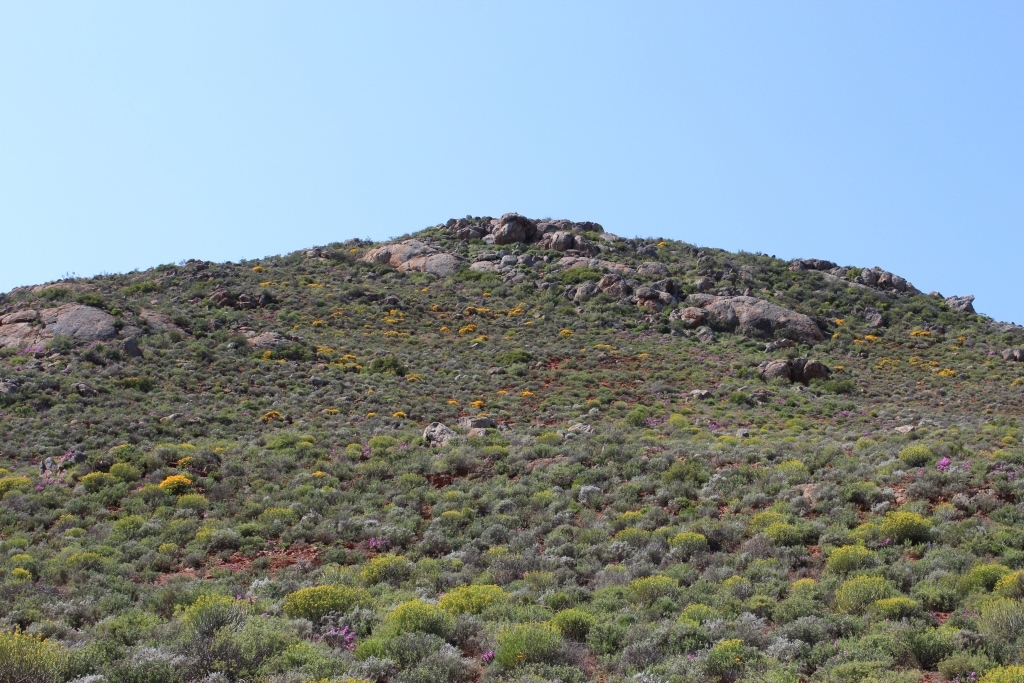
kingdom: Plantae
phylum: Tracheophyta
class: Magnoliopsida
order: Malpighiales
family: Euphorbiaceae
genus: Euphorbia
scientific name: Euphorbia mauritanica
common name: Jackal's-food
